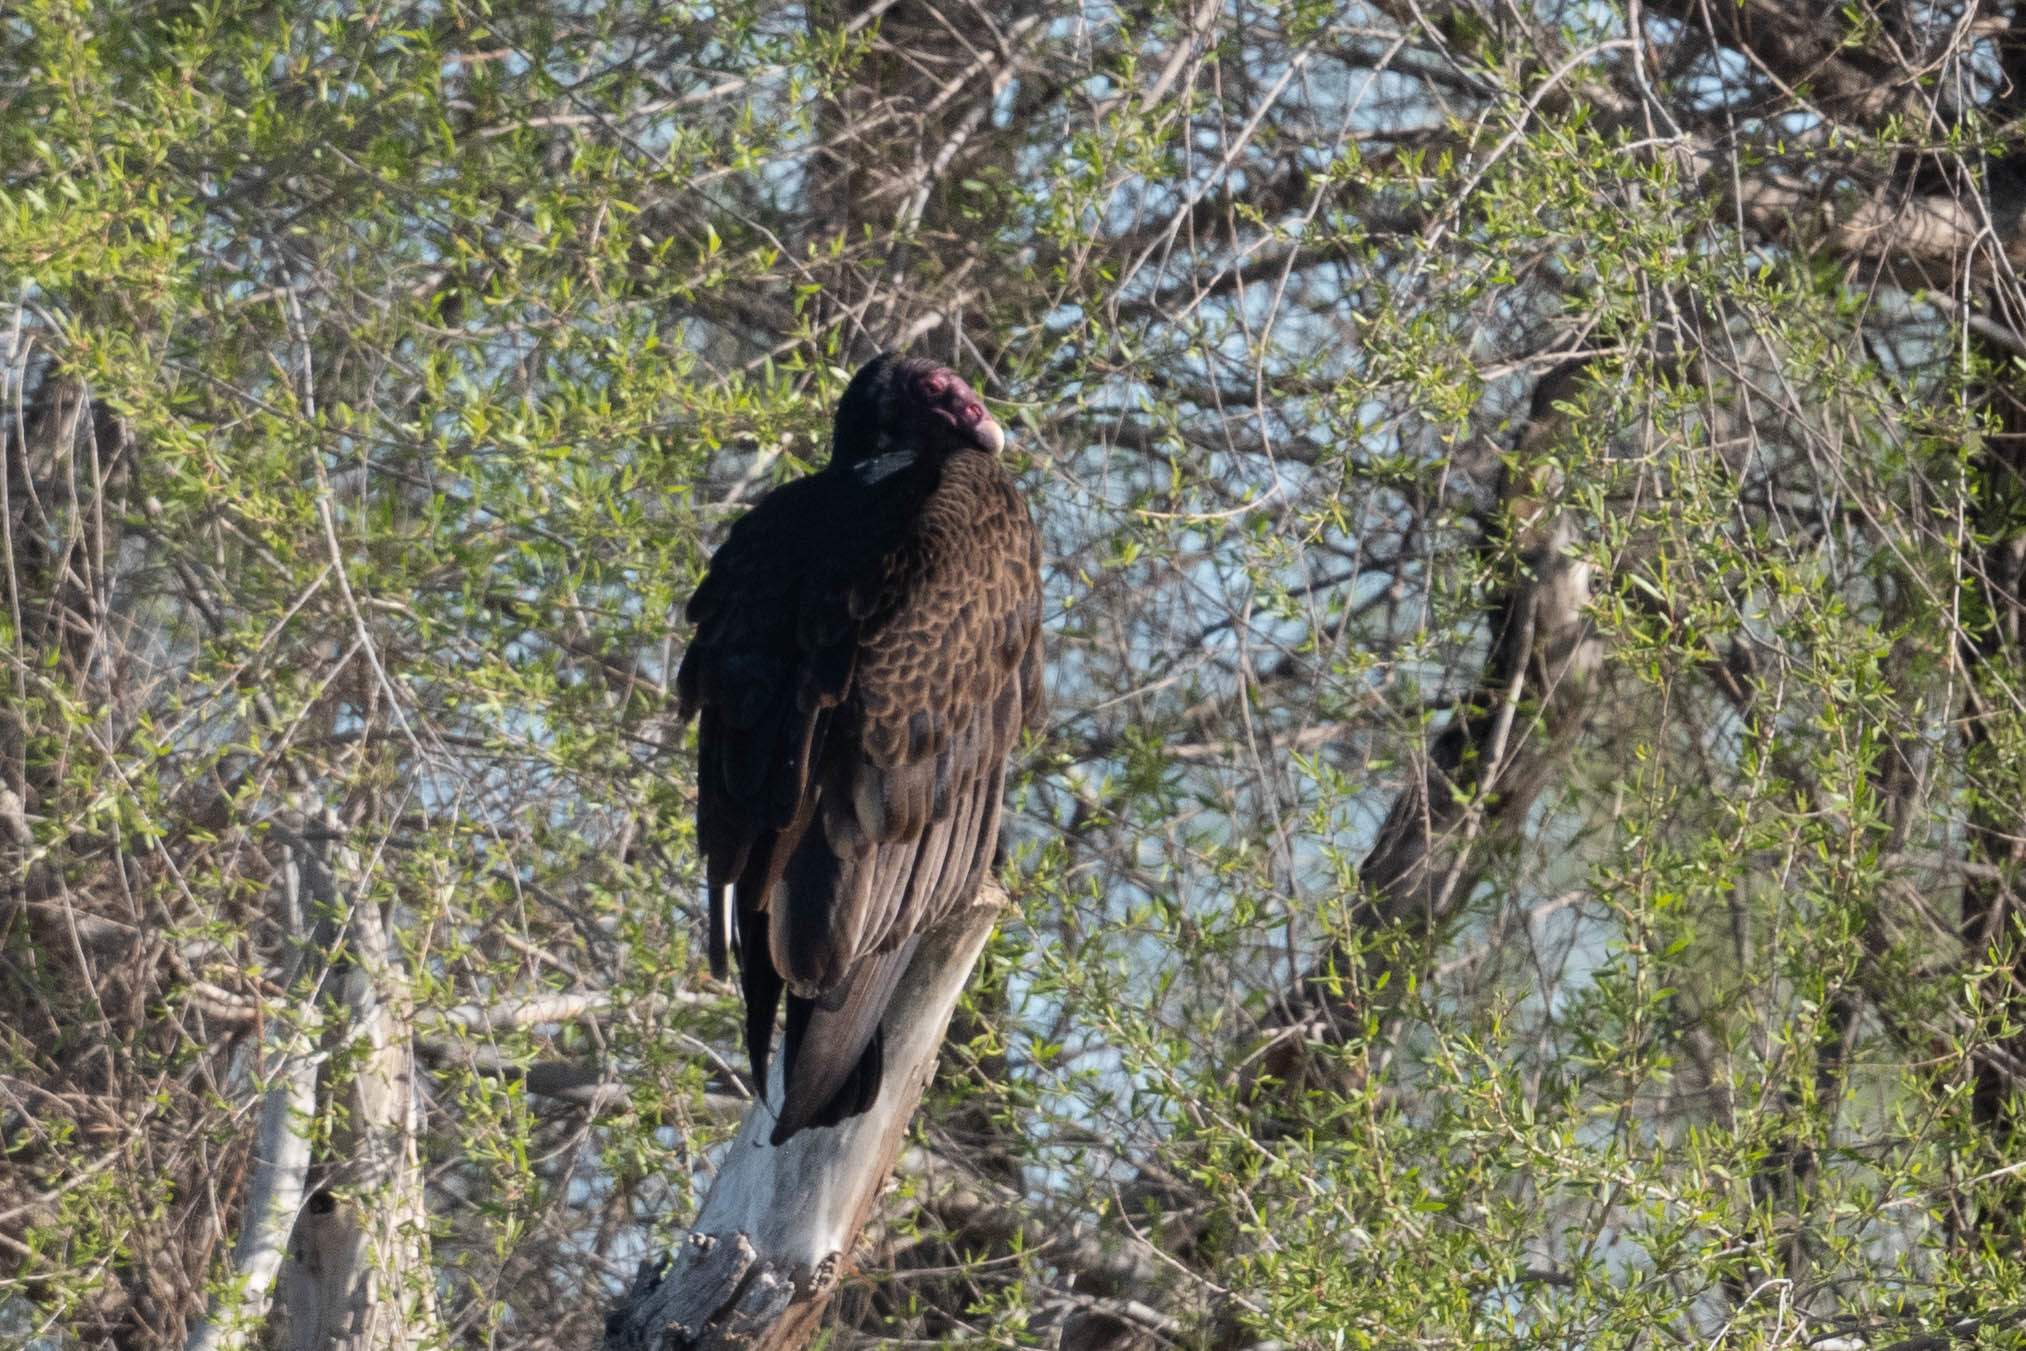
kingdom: Animalia
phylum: Chordata
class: Aves
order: Accipitriformes
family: Cathartidae
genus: Cathartes
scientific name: Cathartes aura
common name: Turkey vulture
